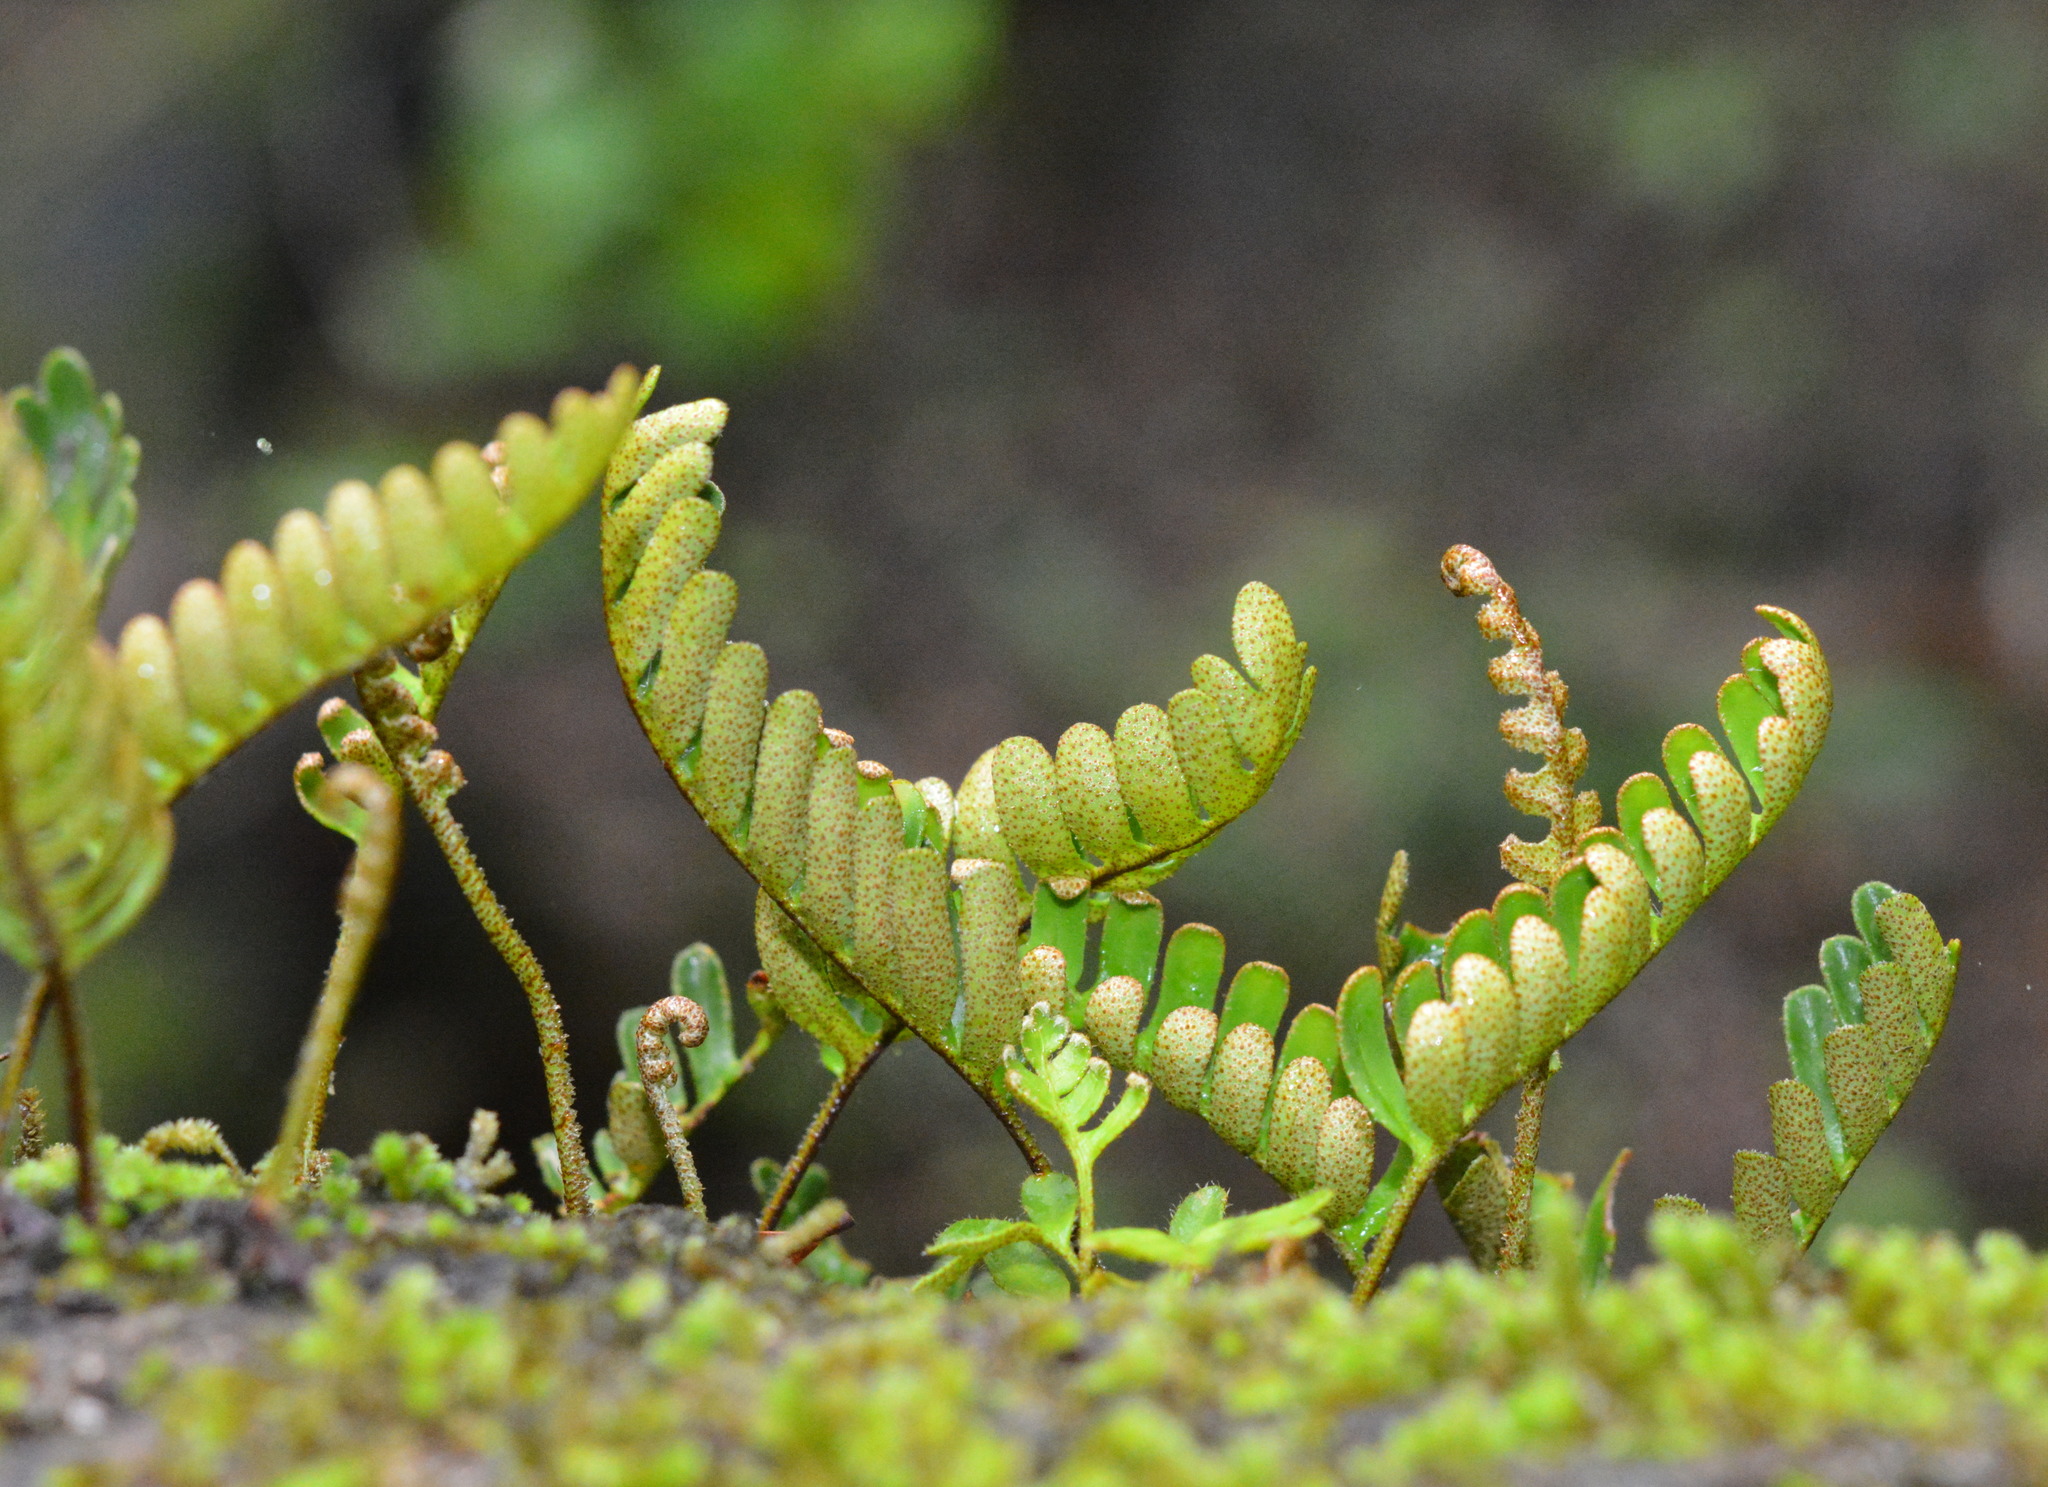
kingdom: Plantae
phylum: Tracheophyta
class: Polypodiopsida
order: Polypodiales
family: Polypodiaceae
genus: Pleopeltis
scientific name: Pleopeltis michauxiana
